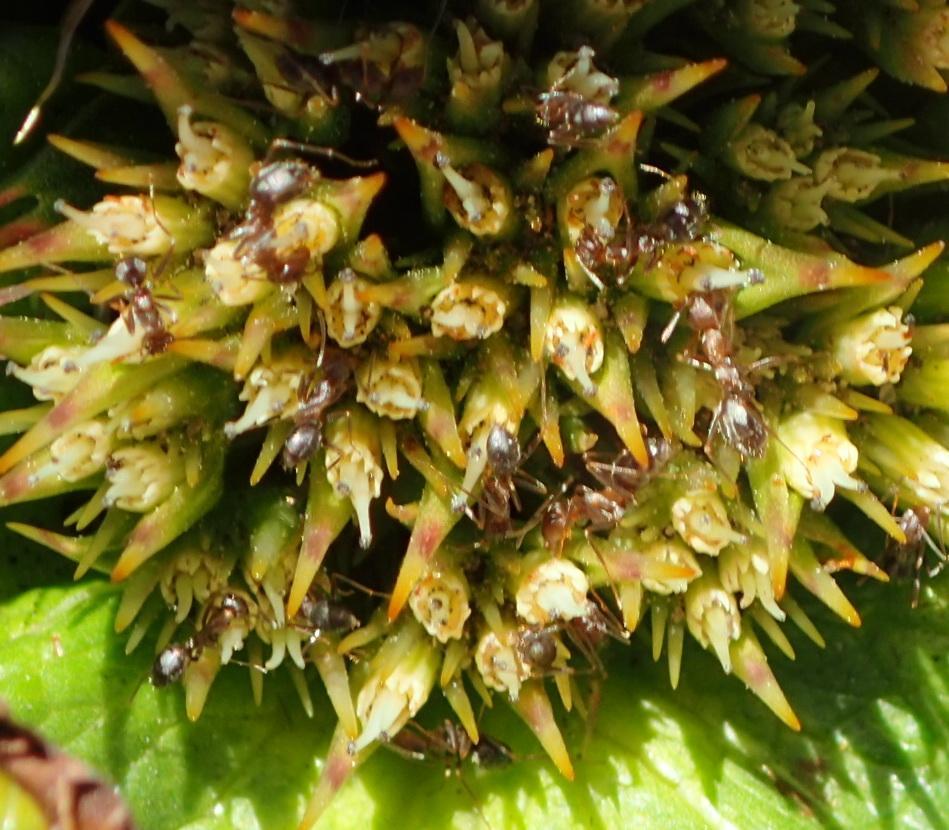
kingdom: Plantae
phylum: Tracheophyta
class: Magnoliopsida
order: Apiales
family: Apiaceae
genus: Arctopus
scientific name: Arctopus echinatus
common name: Platdoring
